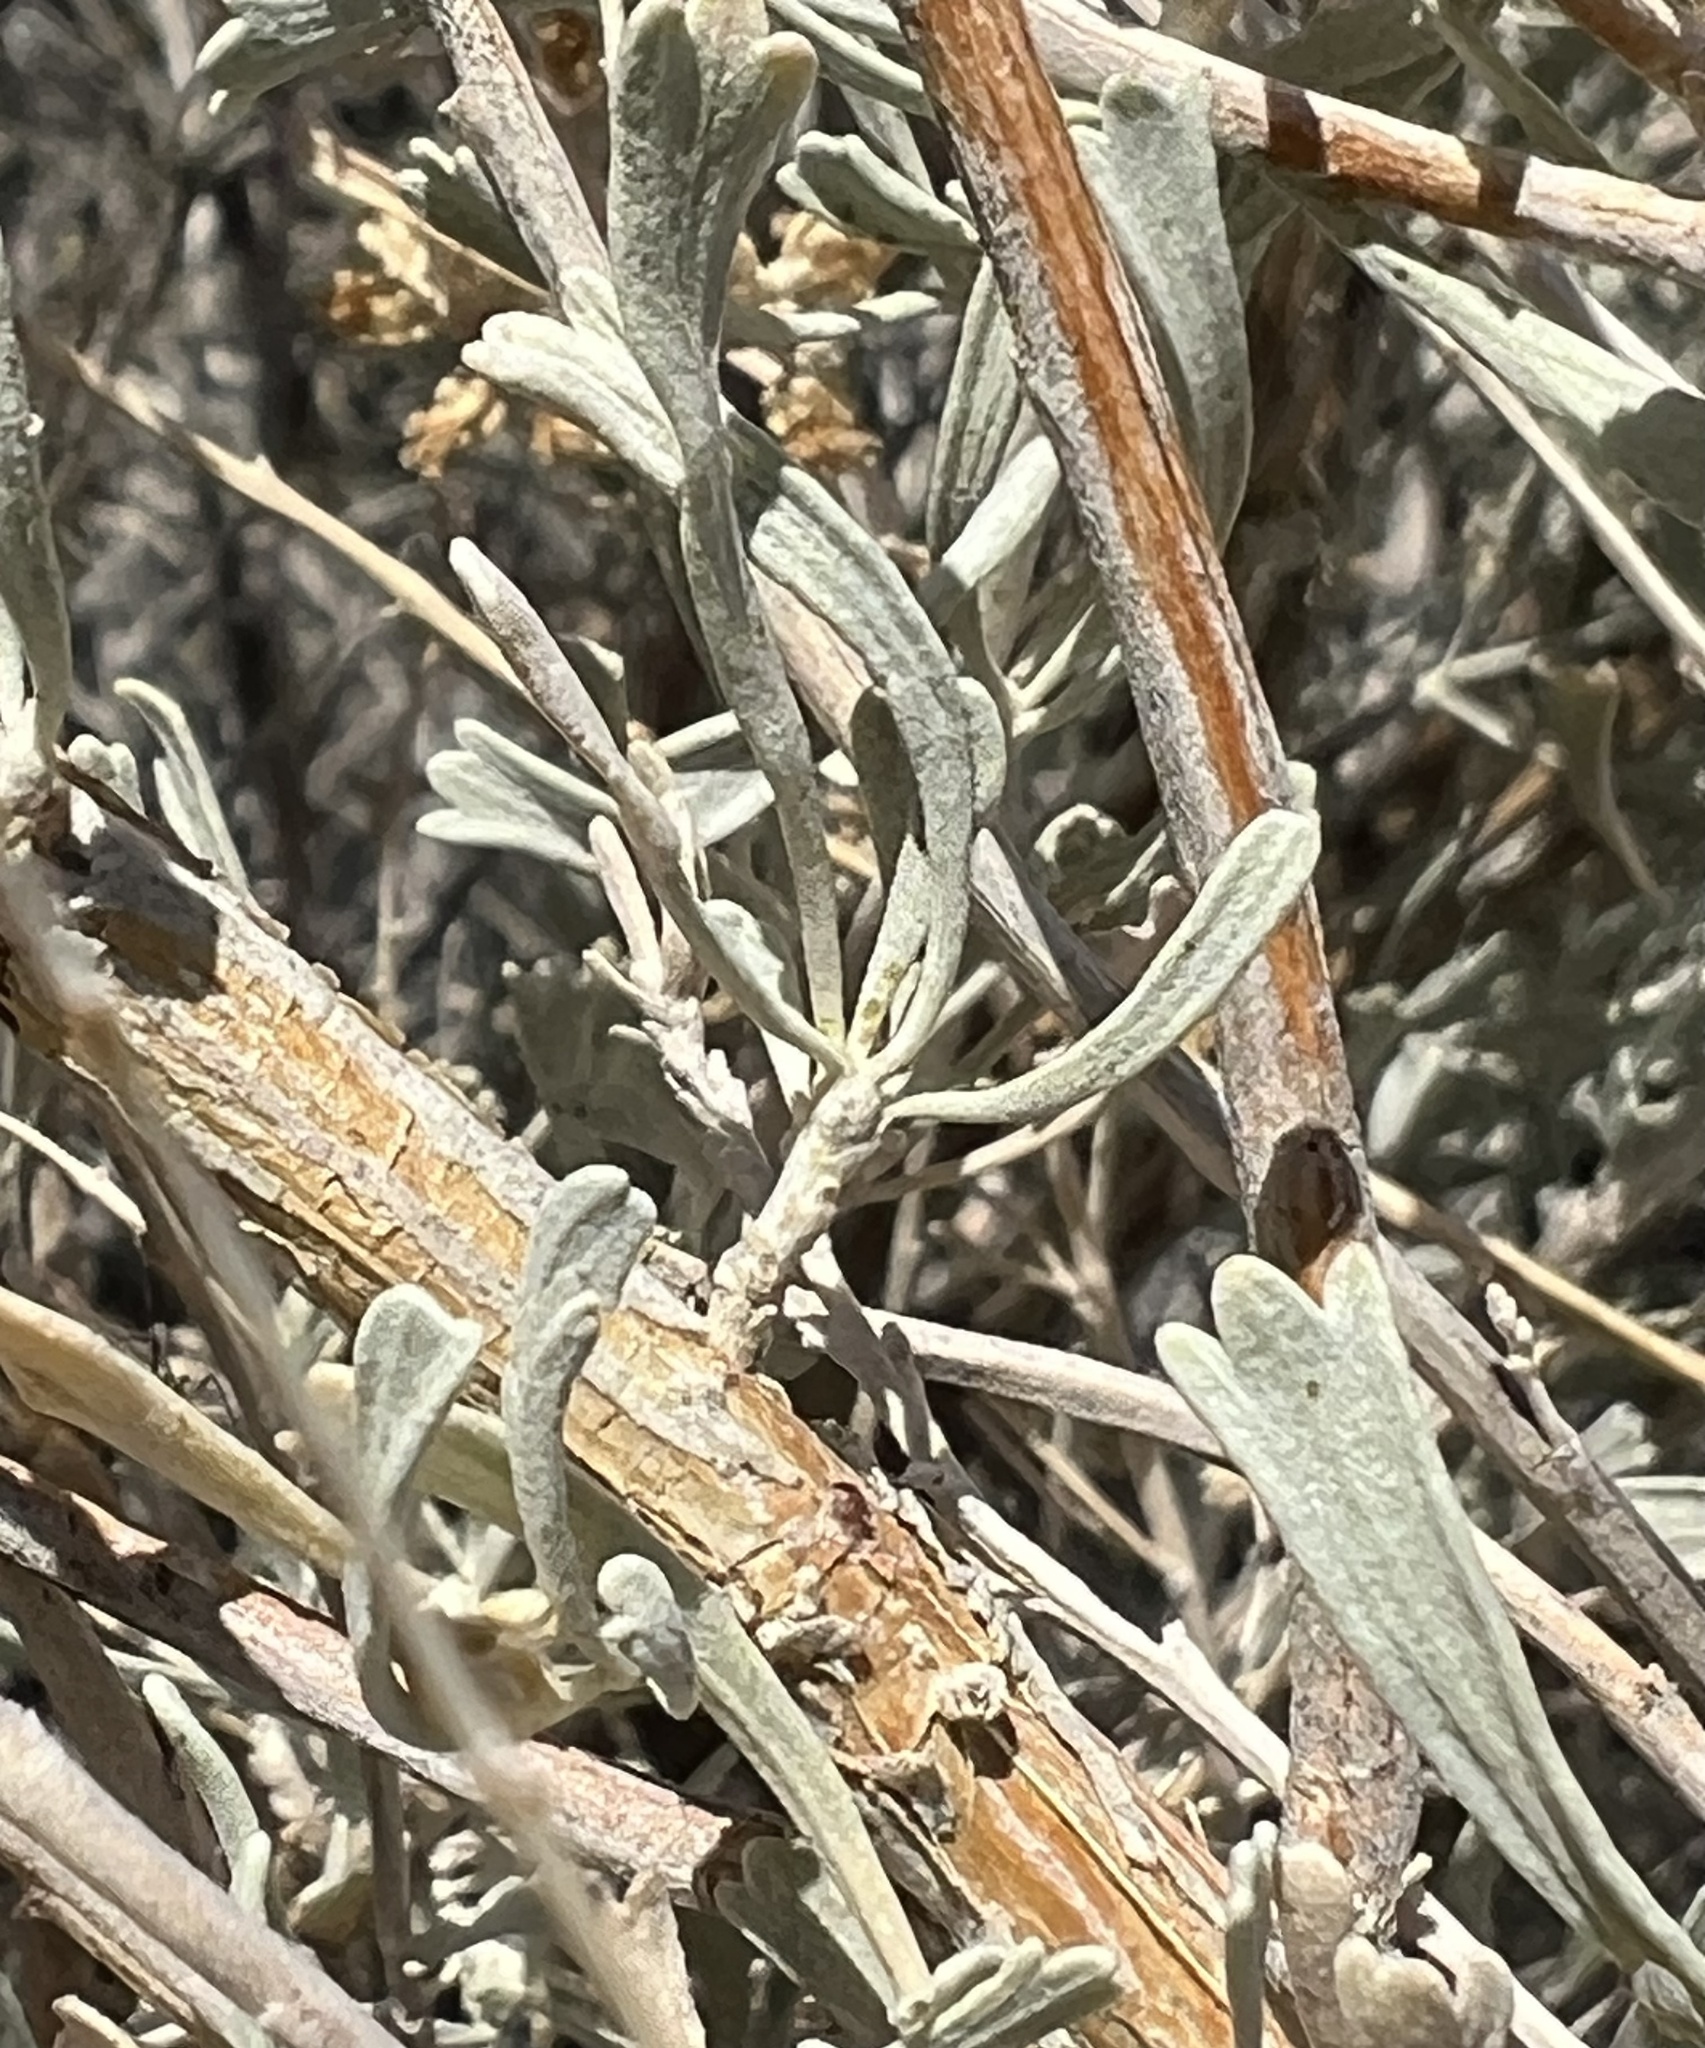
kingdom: Plantae
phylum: Tracheophyta
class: Magnoliopsida
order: Asterales
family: Asteraceae
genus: Artemisia
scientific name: Artemisia tridentata
